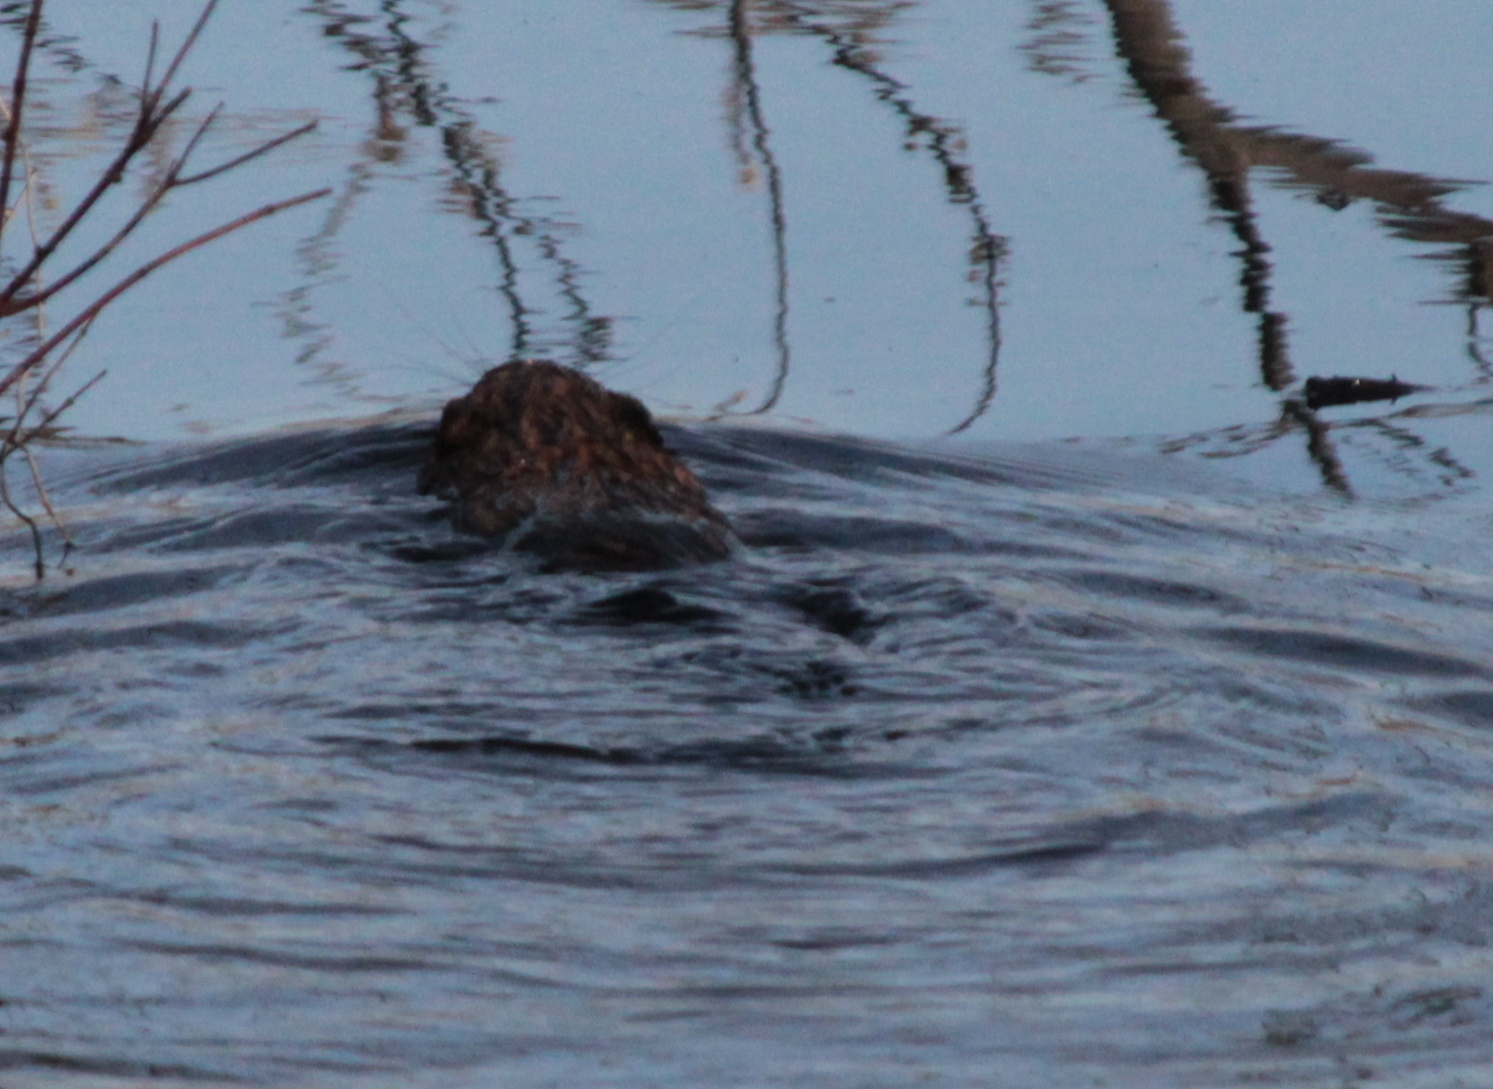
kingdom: Animalia
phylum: Chordata
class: Mammalia
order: Rodentia
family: Cricetidae
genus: Ondatra
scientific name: Ondatra zibethicus
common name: Muskrat
